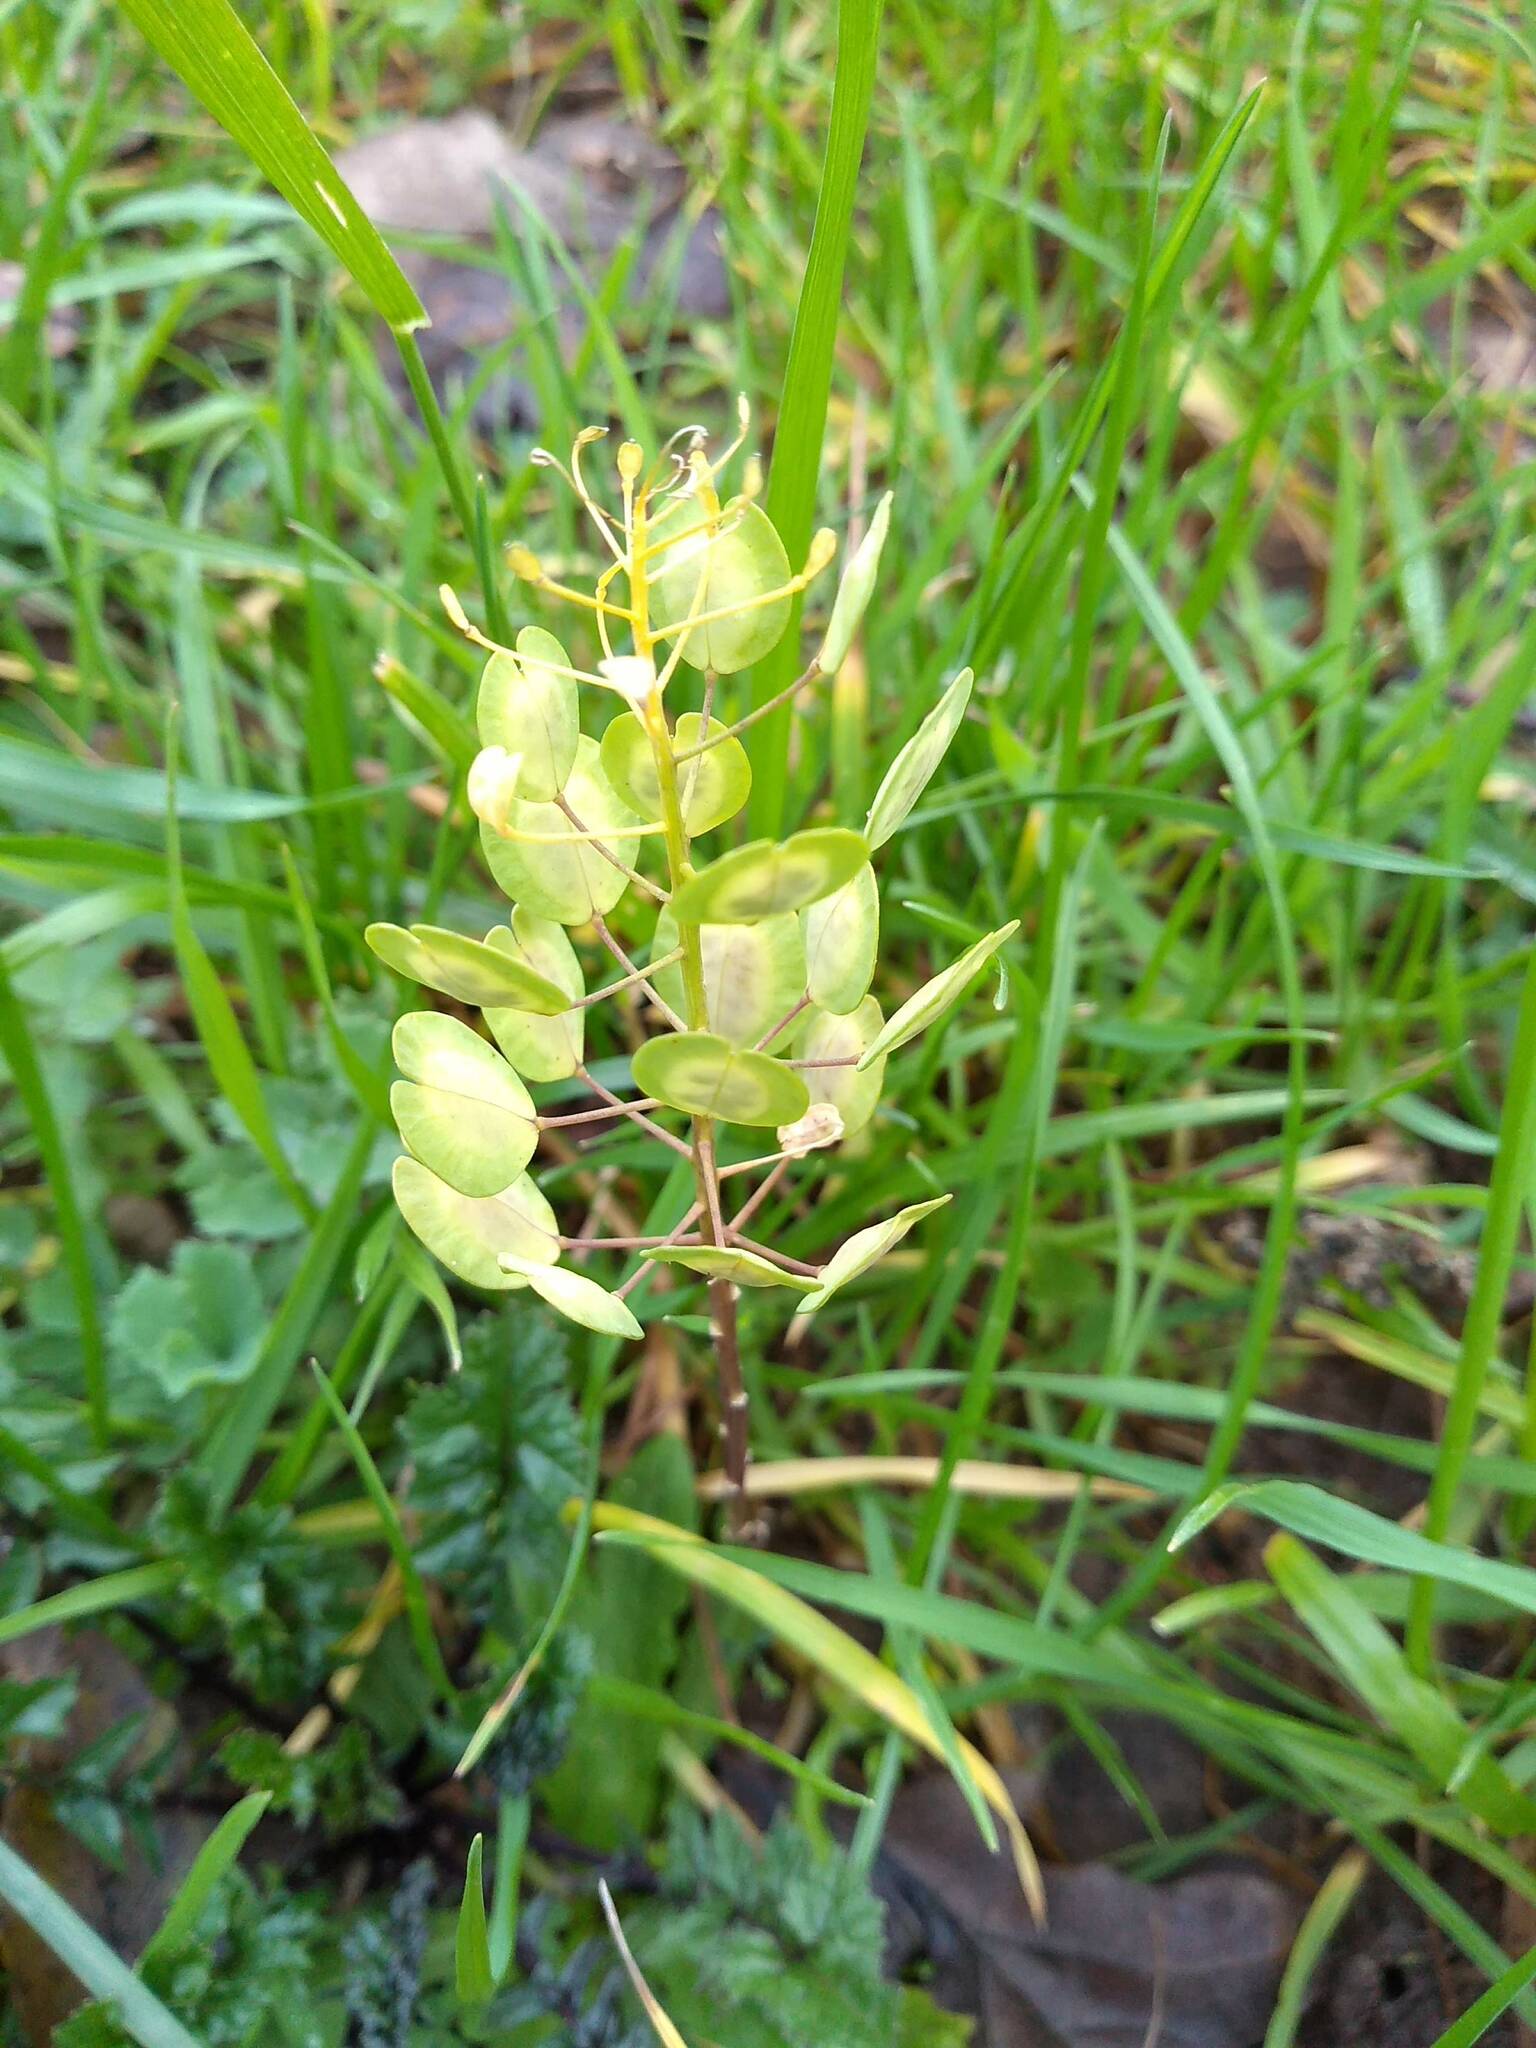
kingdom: Plantae
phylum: Tracheophyta
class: Magnoliopsida
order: Brassicales
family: Brassicaceae
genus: Thlaspi
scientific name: Thlaspi arvense
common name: Field pennycress
